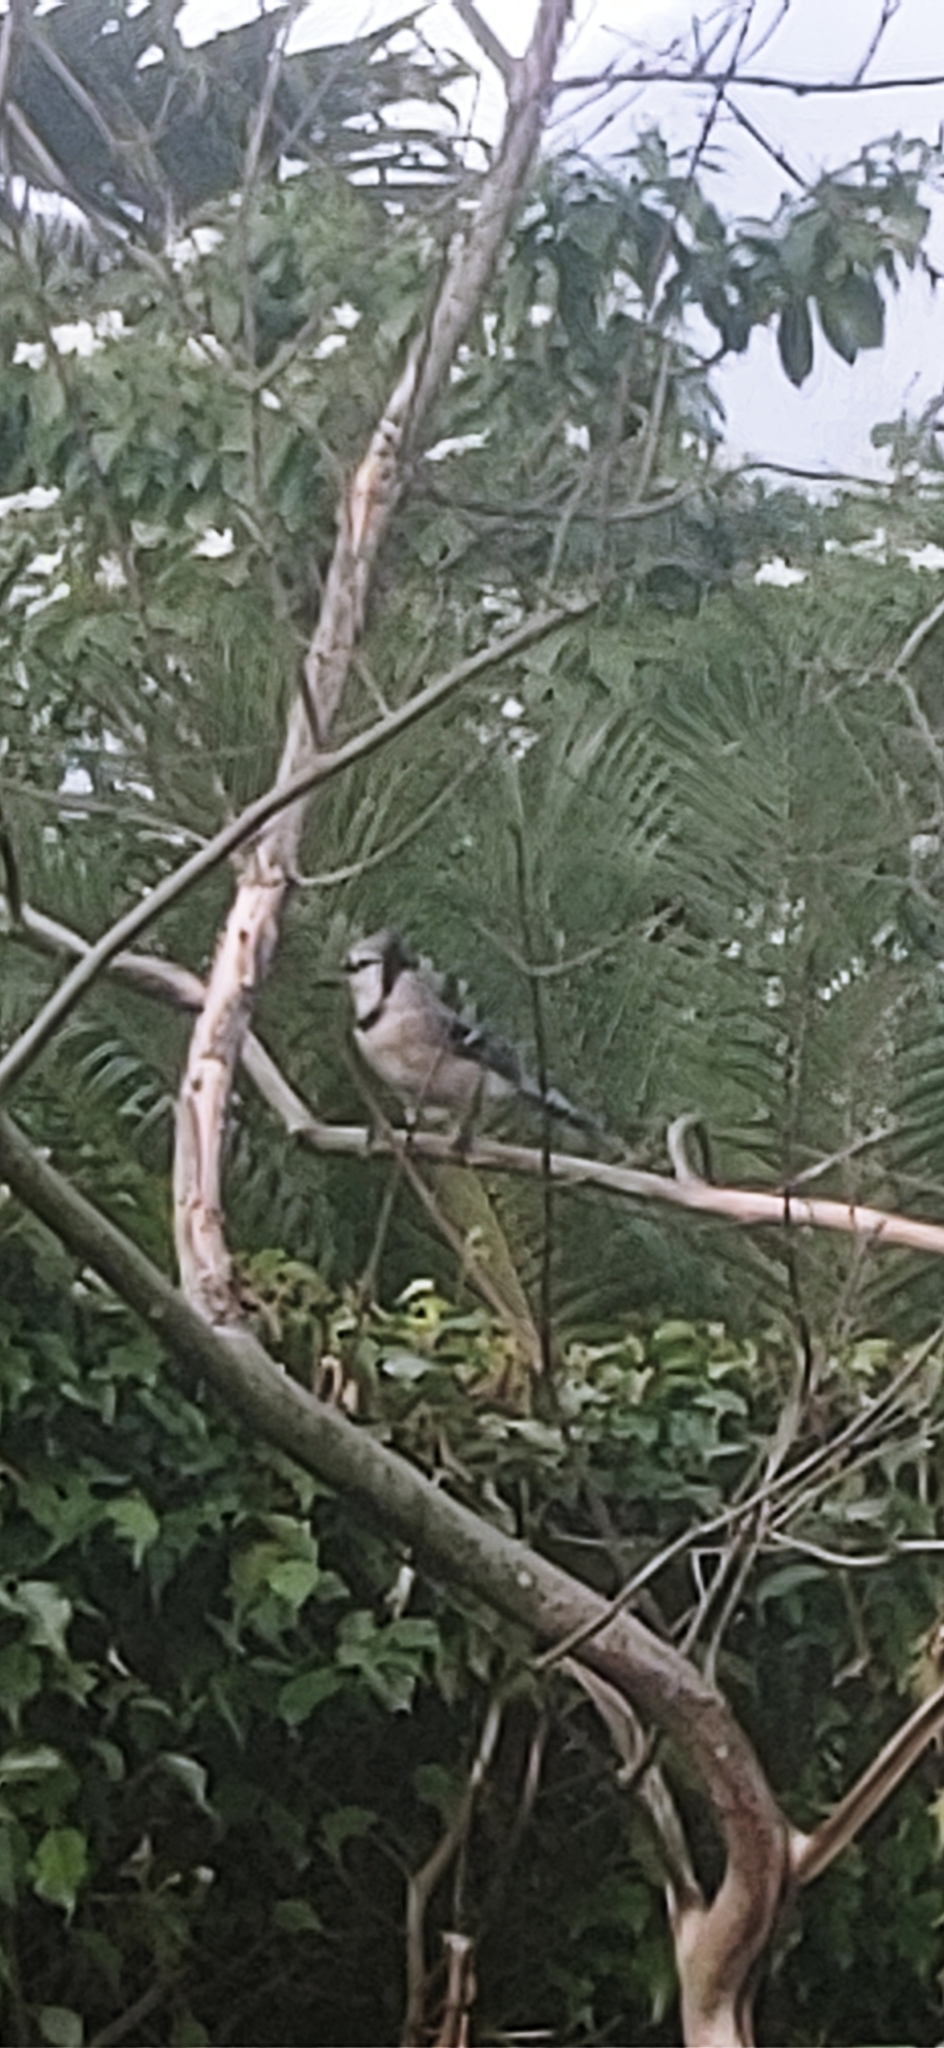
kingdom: Animalia
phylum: Chordata
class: Aves
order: Passeriformes
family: Corvidae
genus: Cyanocitta
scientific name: Cyanocitta cristata
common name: Blue jay
